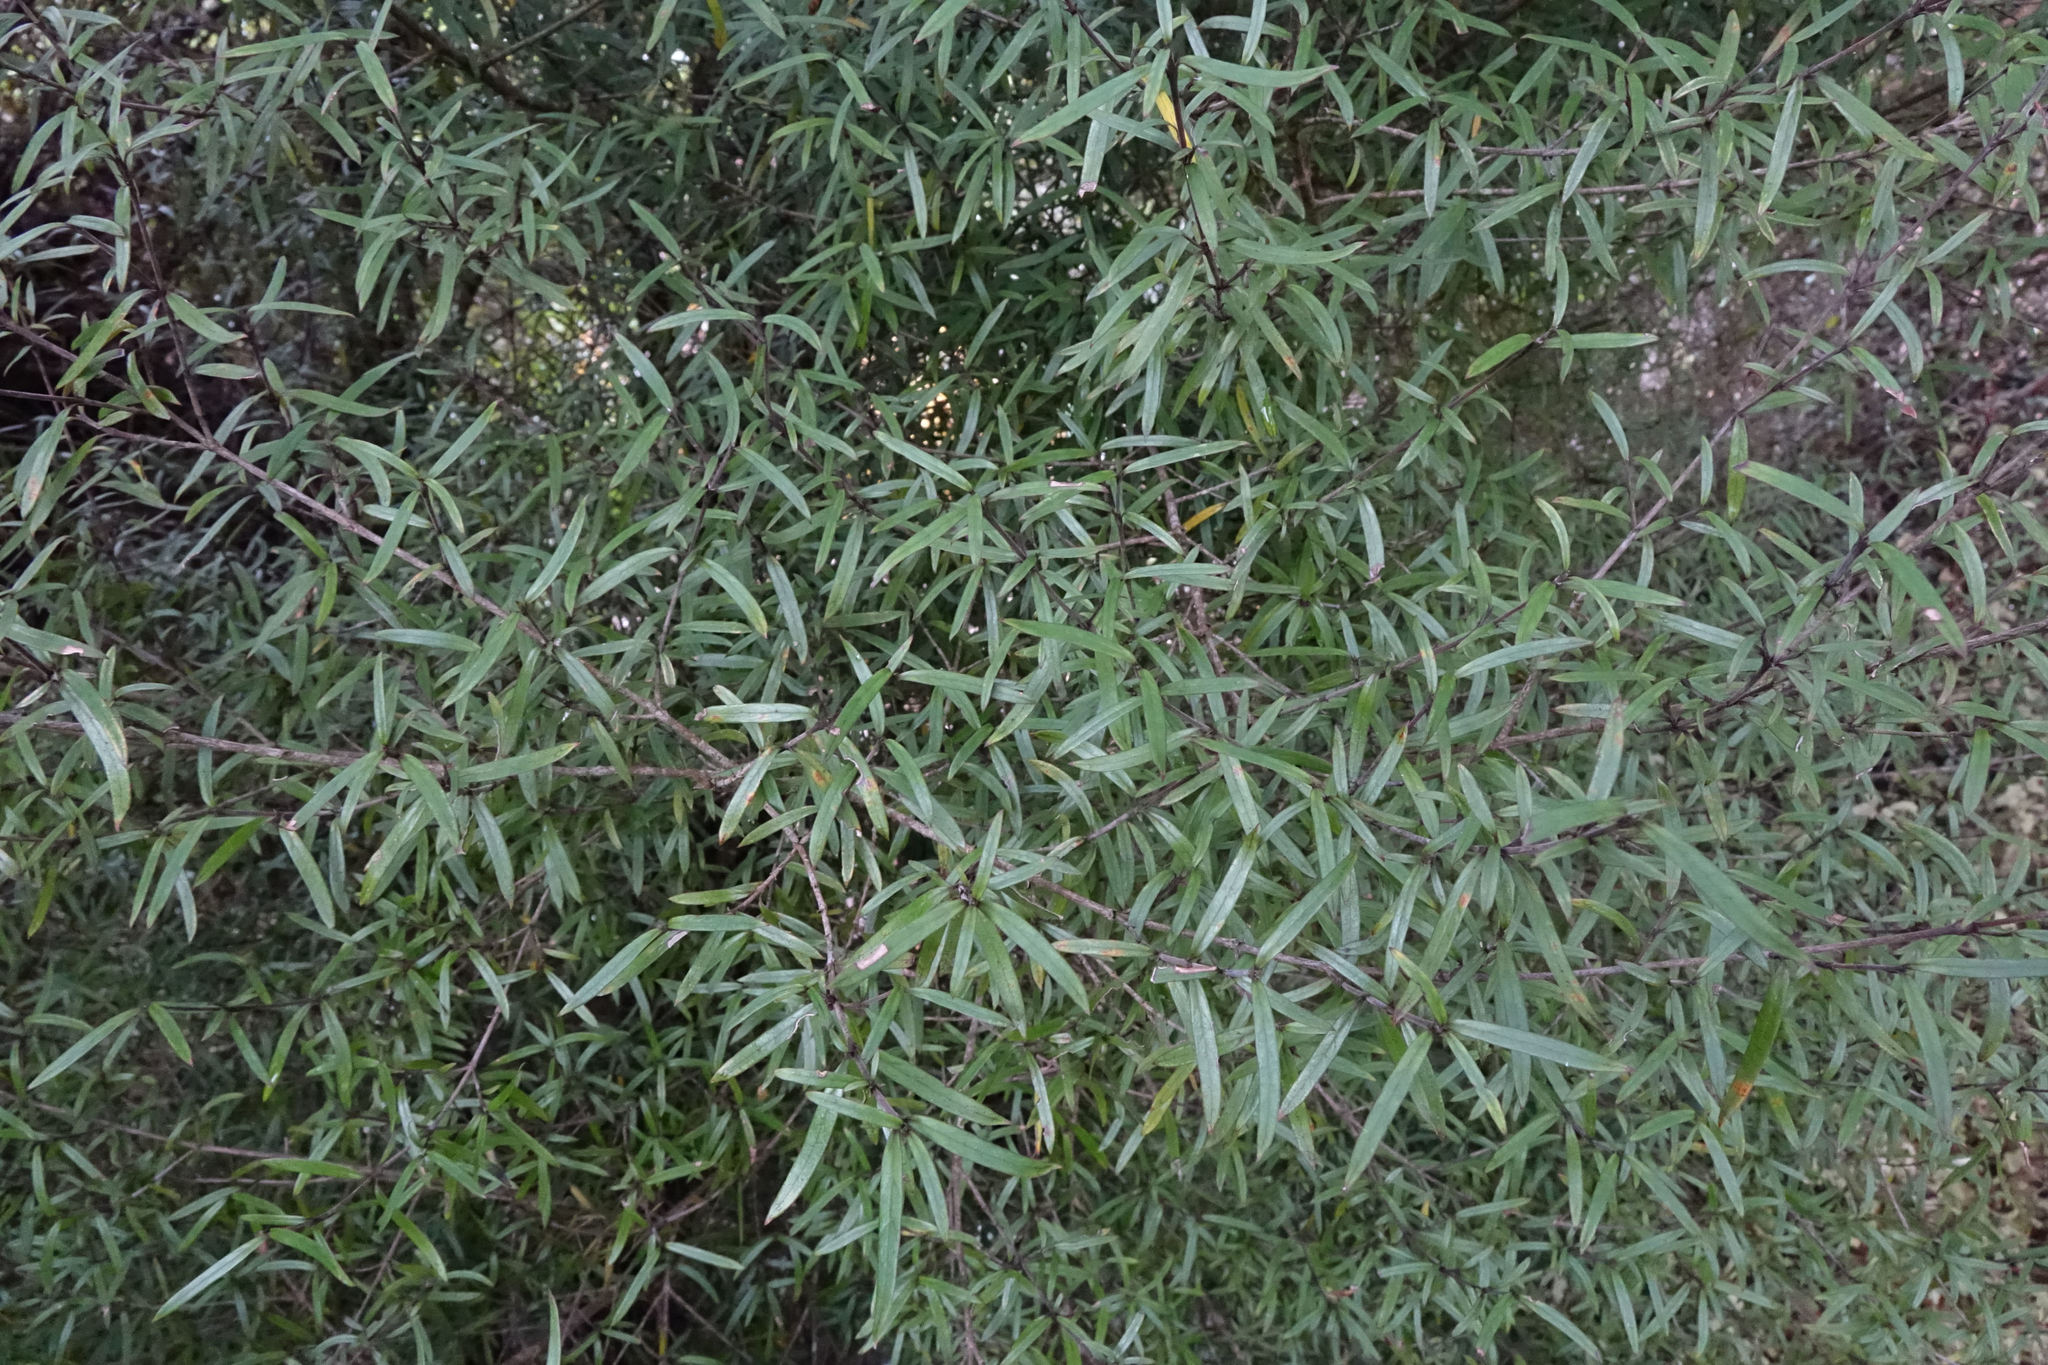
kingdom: Plantae
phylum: Tracheophyta
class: Magnoliopsida
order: Gentianales
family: Rubiaceae
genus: Coprosma
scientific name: Coprosma linariifolia
